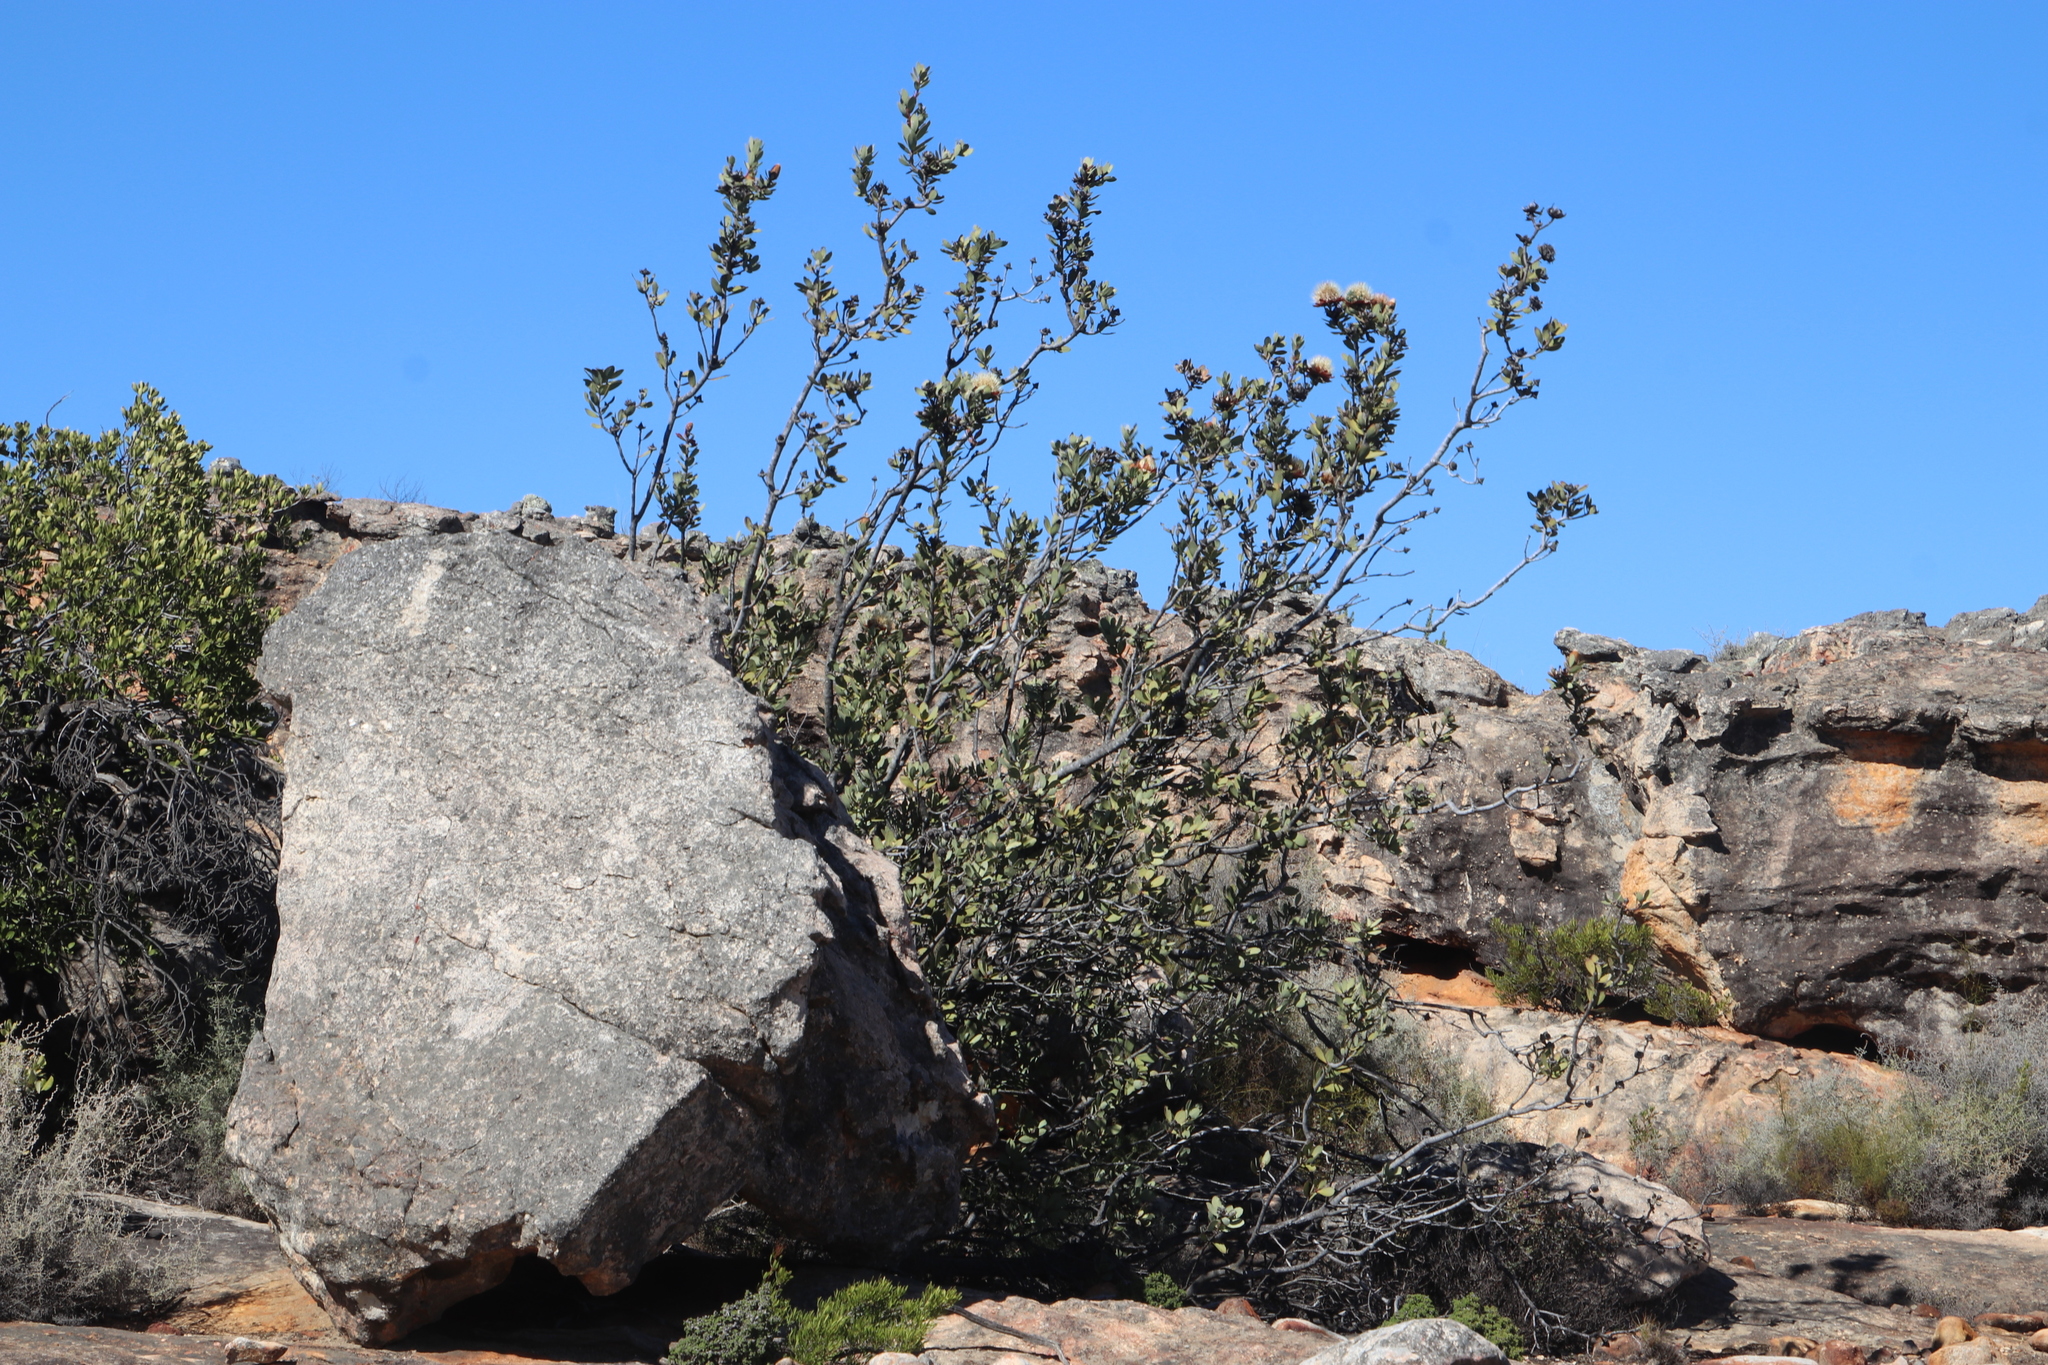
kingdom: Plantae
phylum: Tracheophyta
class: Magnoliopsida
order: Proteales
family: Proteaceae
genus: Protea
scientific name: Protea glabra
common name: Chestnut sugarbush
